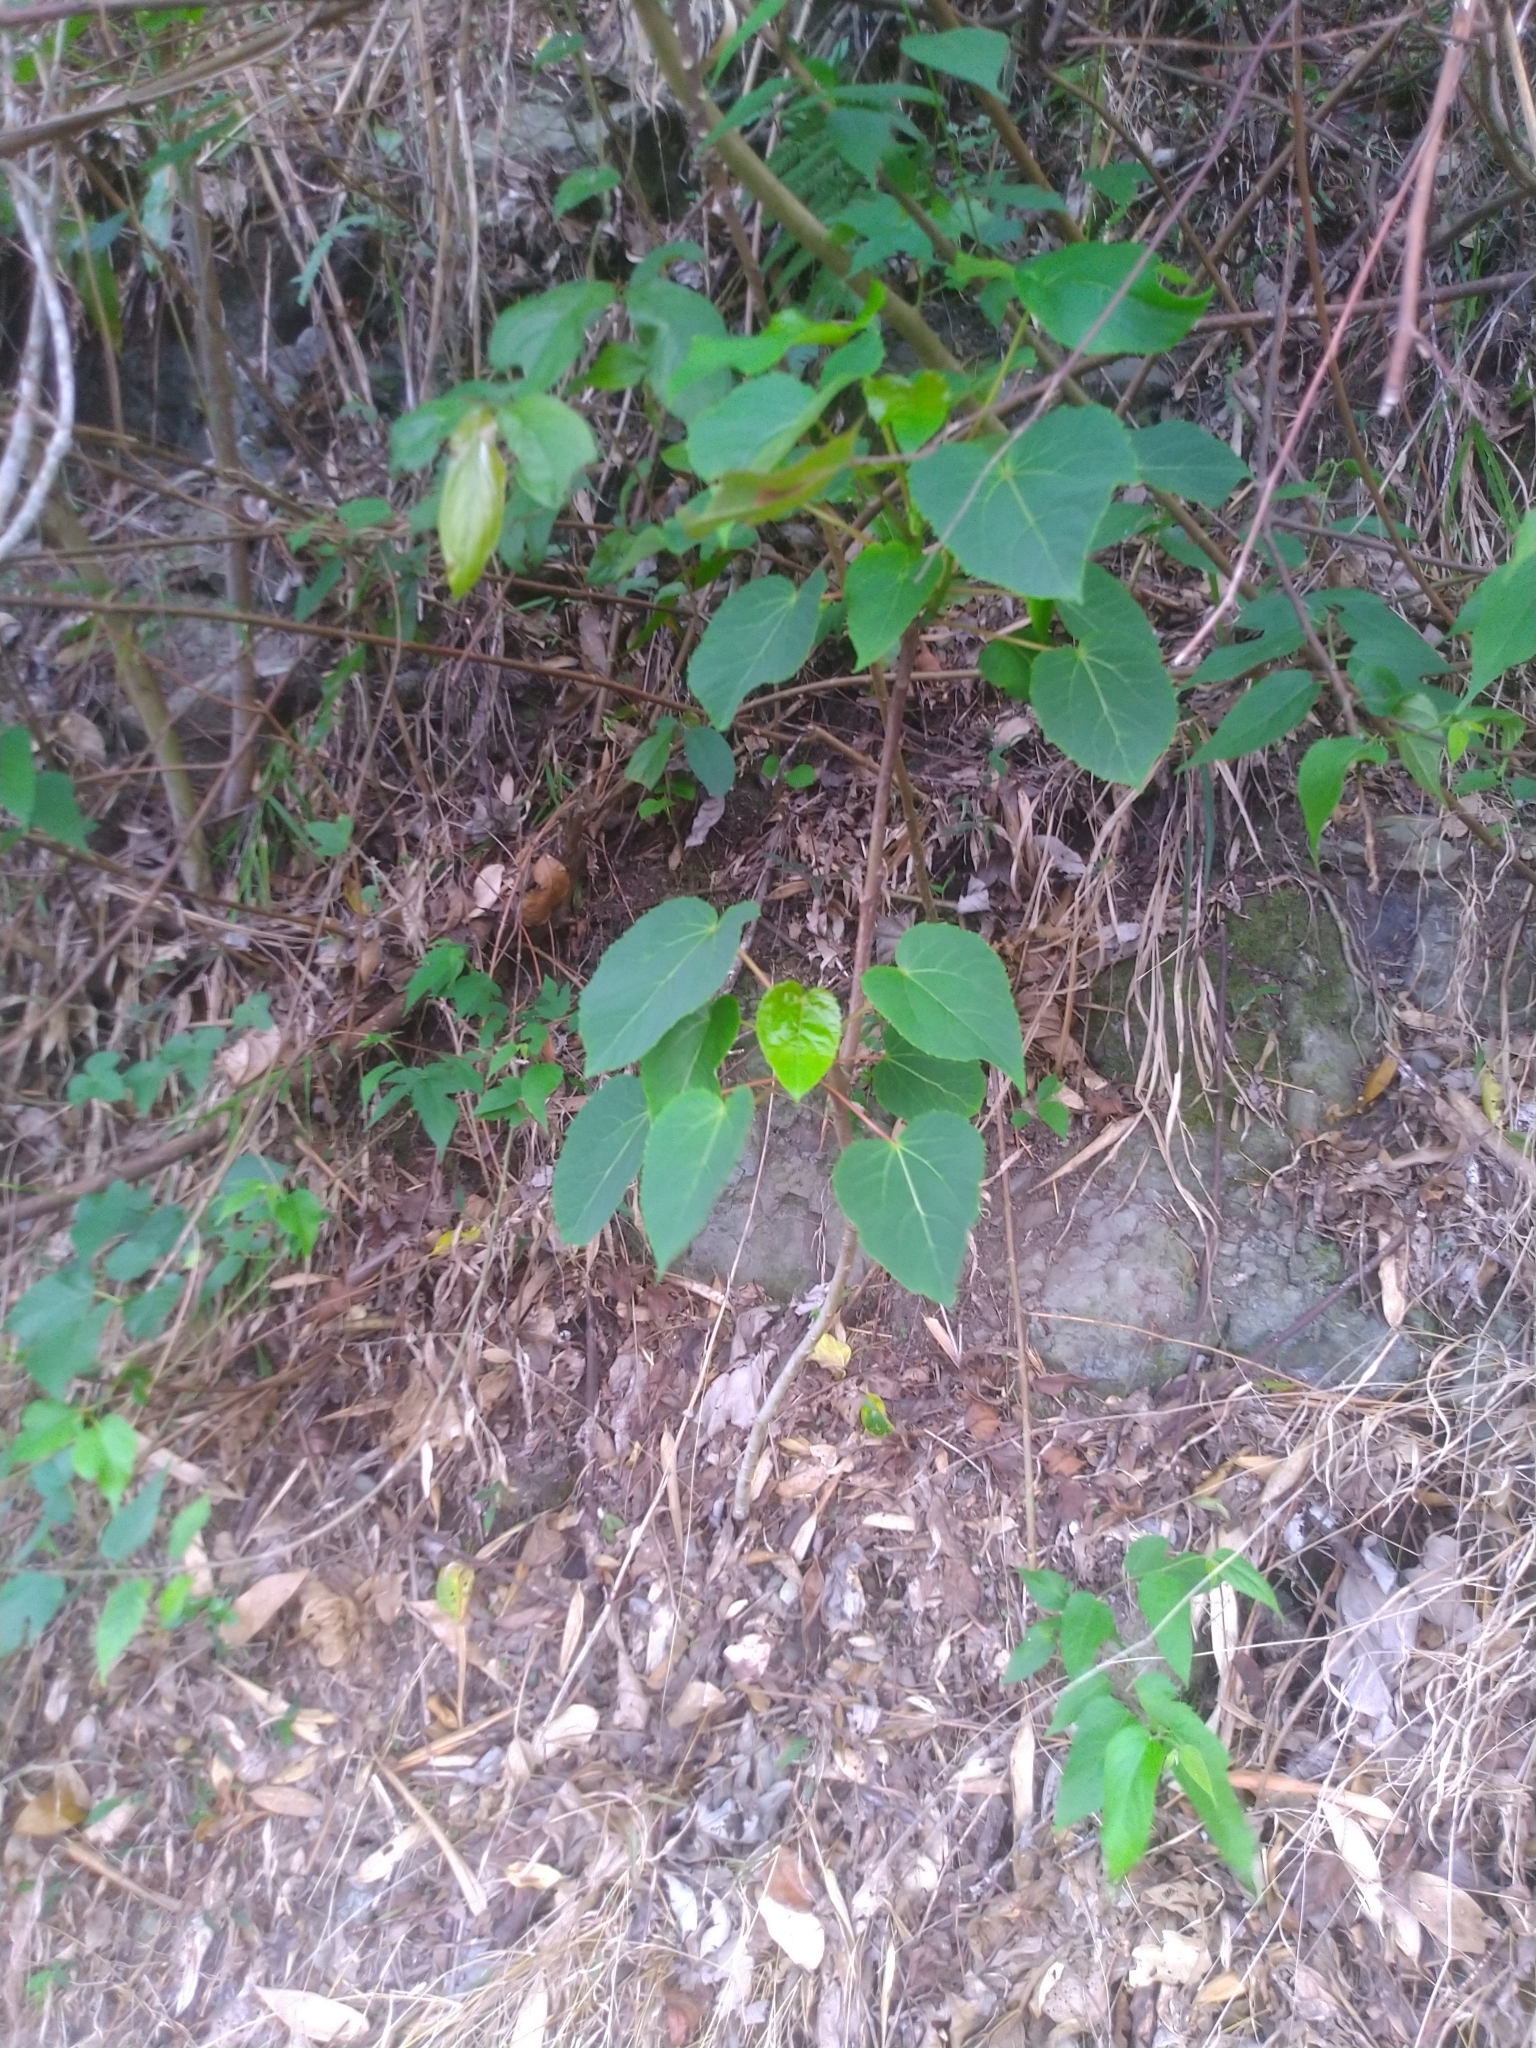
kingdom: Plantae
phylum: Tracheophyta
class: Magnoliopsida
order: Malpighiales
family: Salicaceae
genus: Idesia
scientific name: Idesia polycarpa
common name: Idesia tree
